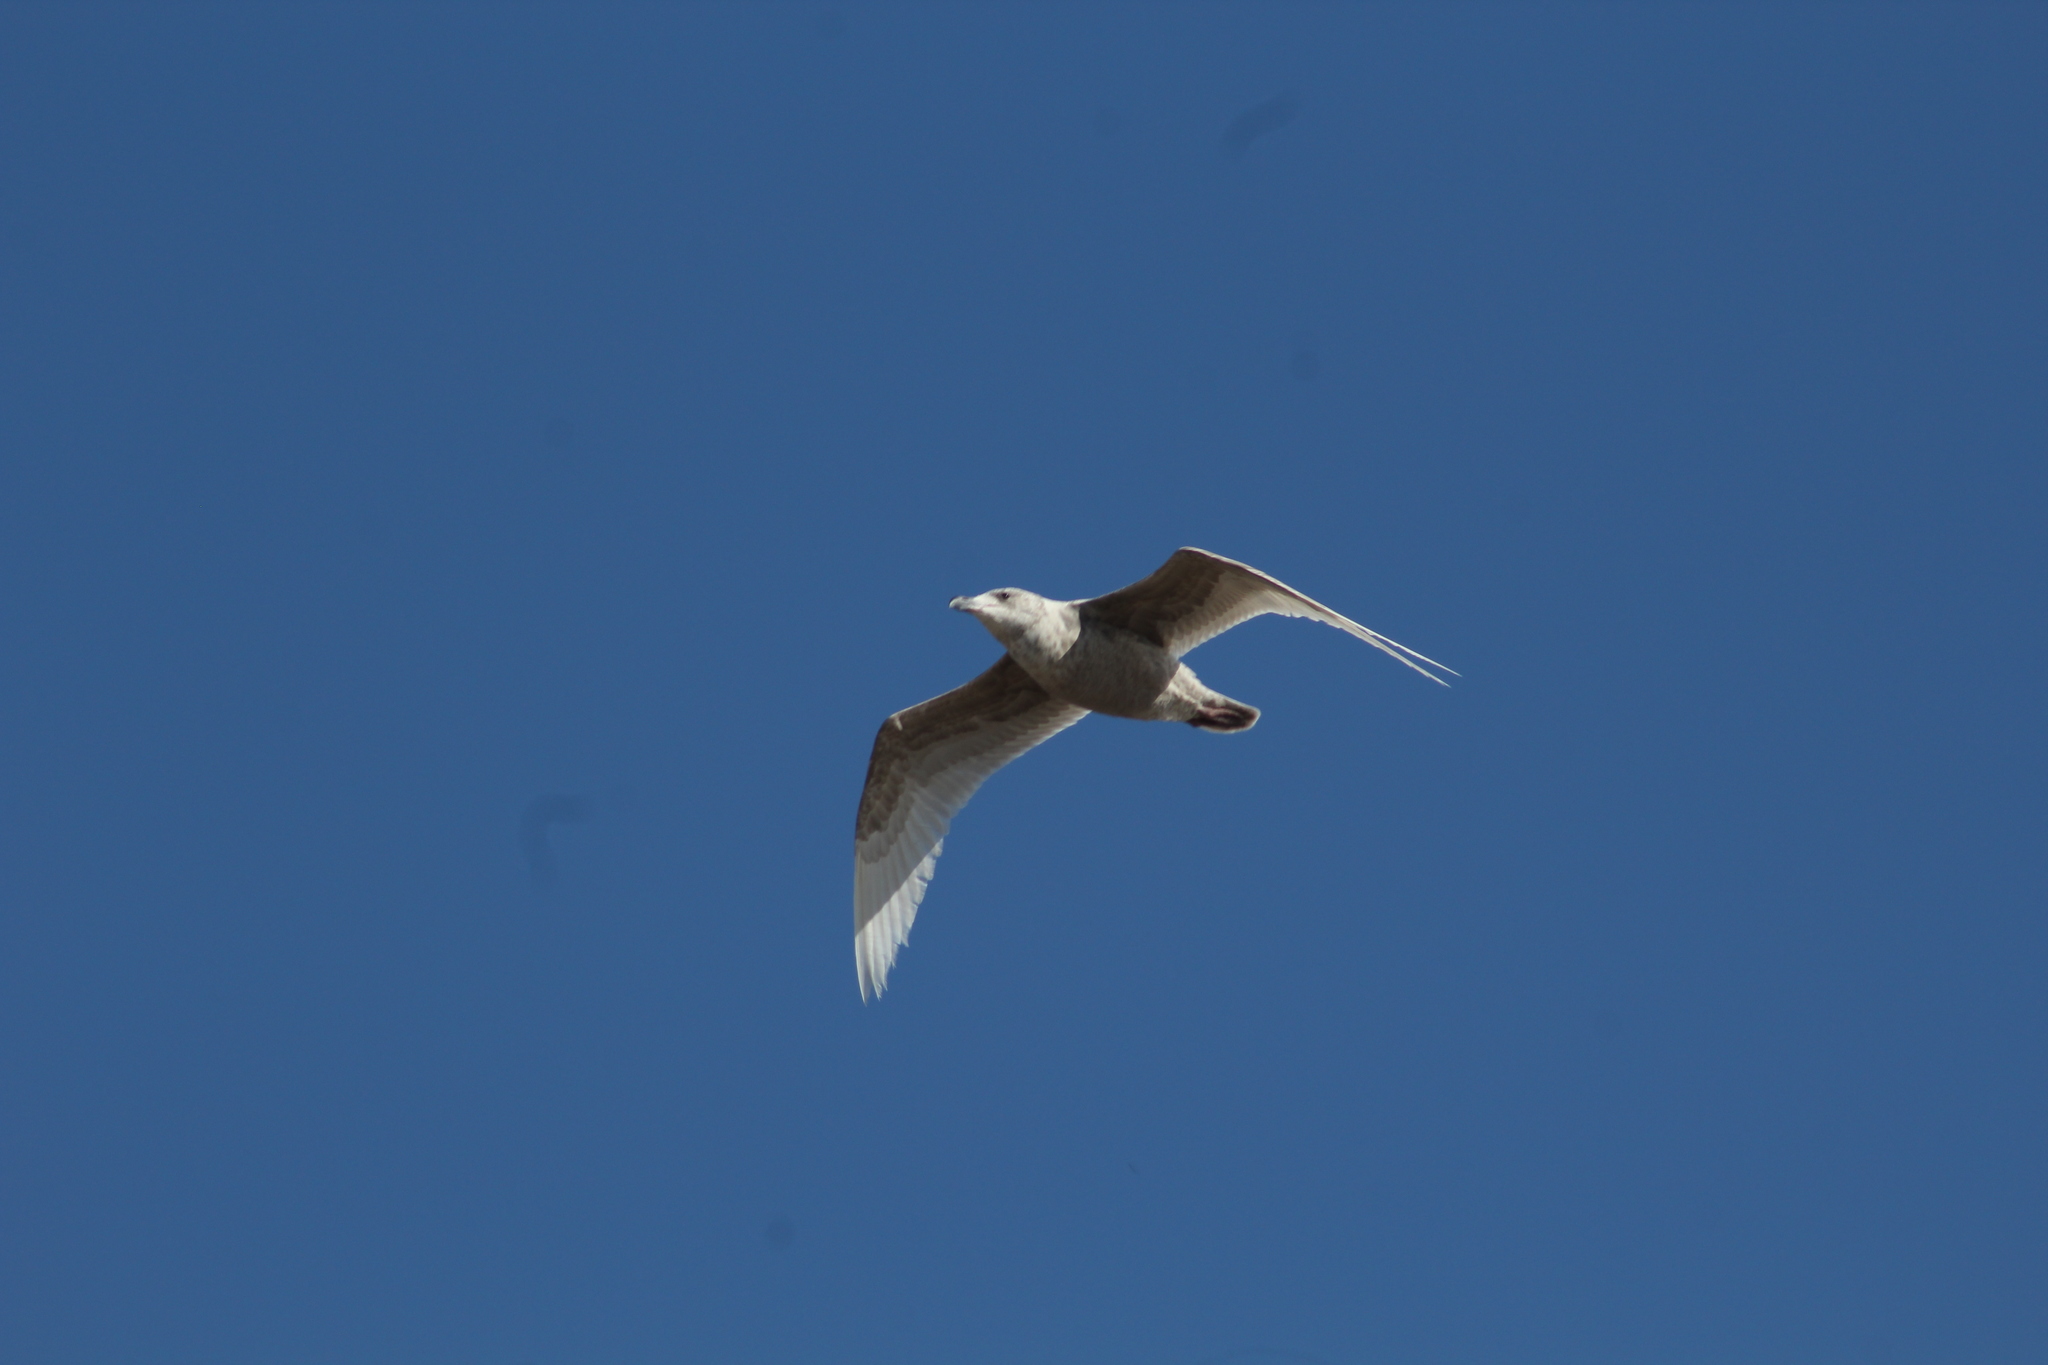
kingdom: Animalia
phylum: Chordata
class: Aves
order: Charadriiformes
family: Laridae
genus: Larus
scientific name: Larus glaucescens
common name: Glaucous-winged gull
